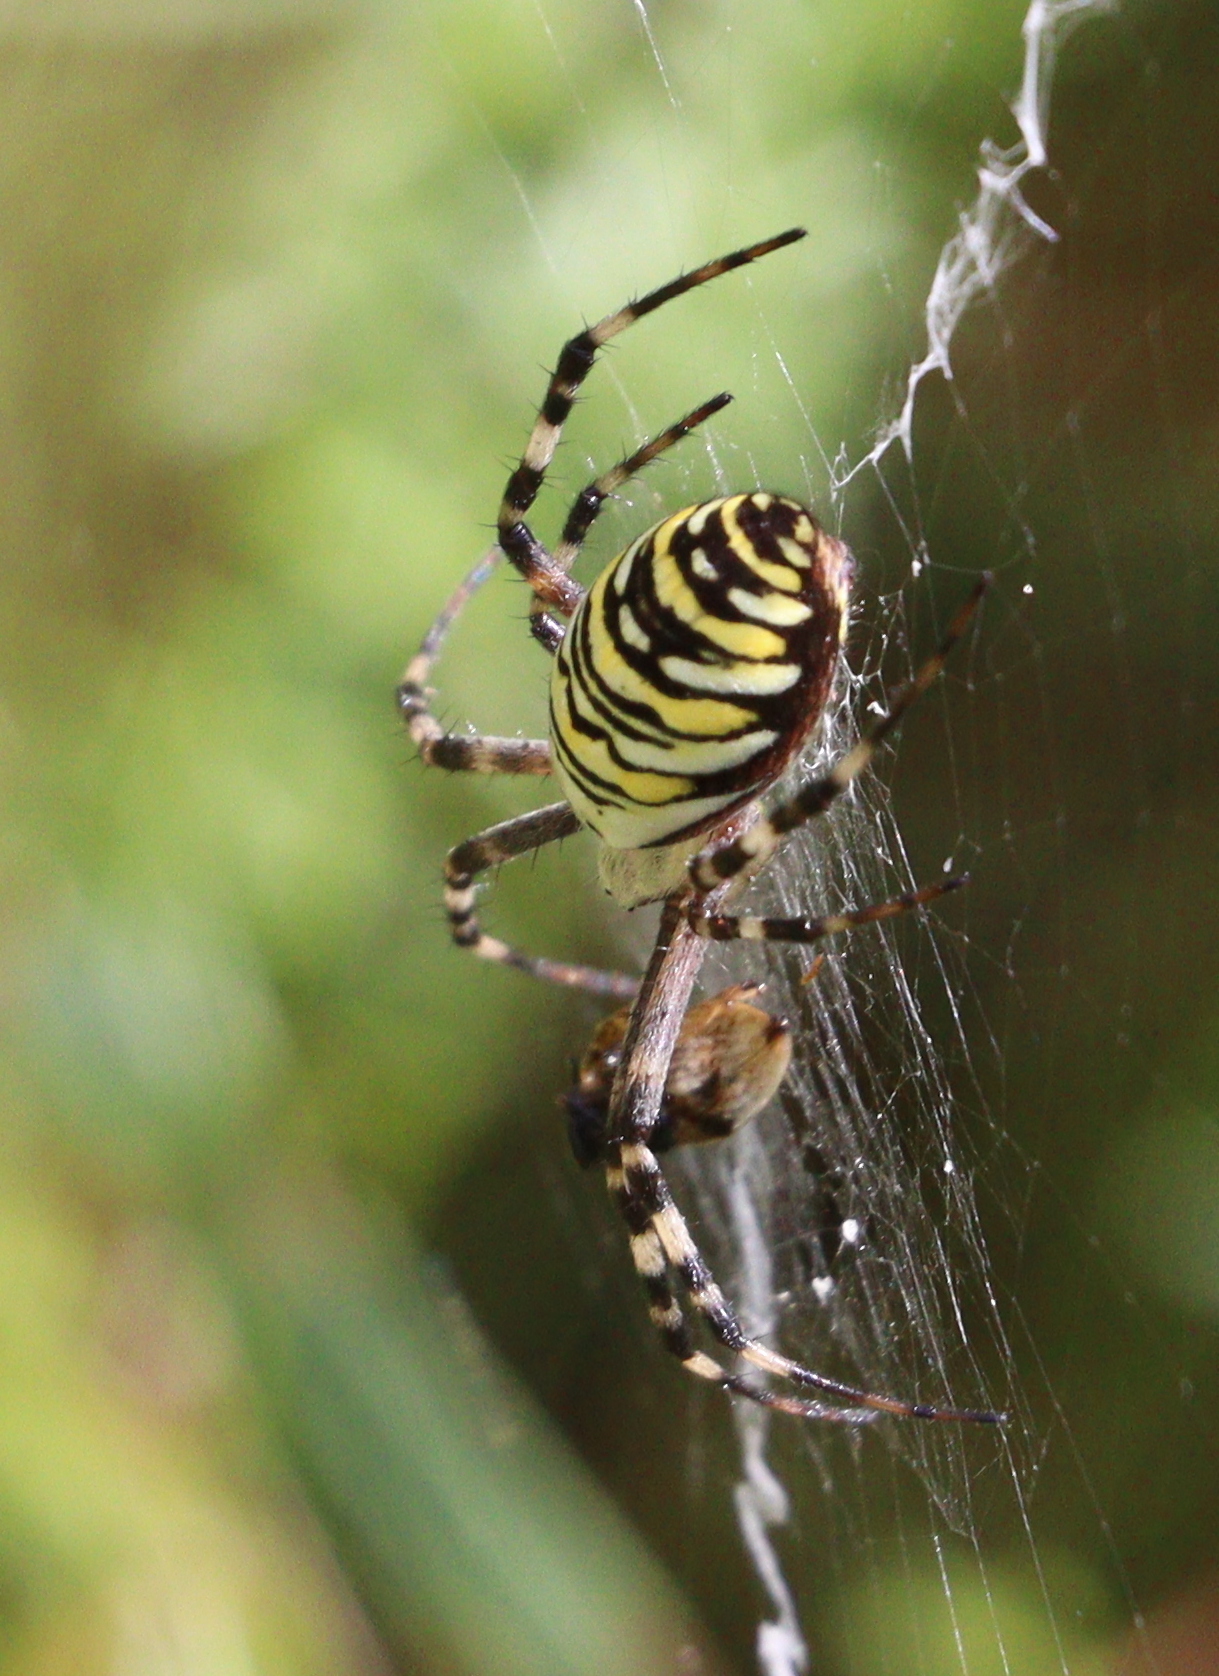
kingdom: Animalia
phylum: Arthropoda
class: Arachnida
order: Araneae
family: Araneidae
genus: Argiope
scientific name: Argiope bruennichi
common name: Wasp spider
